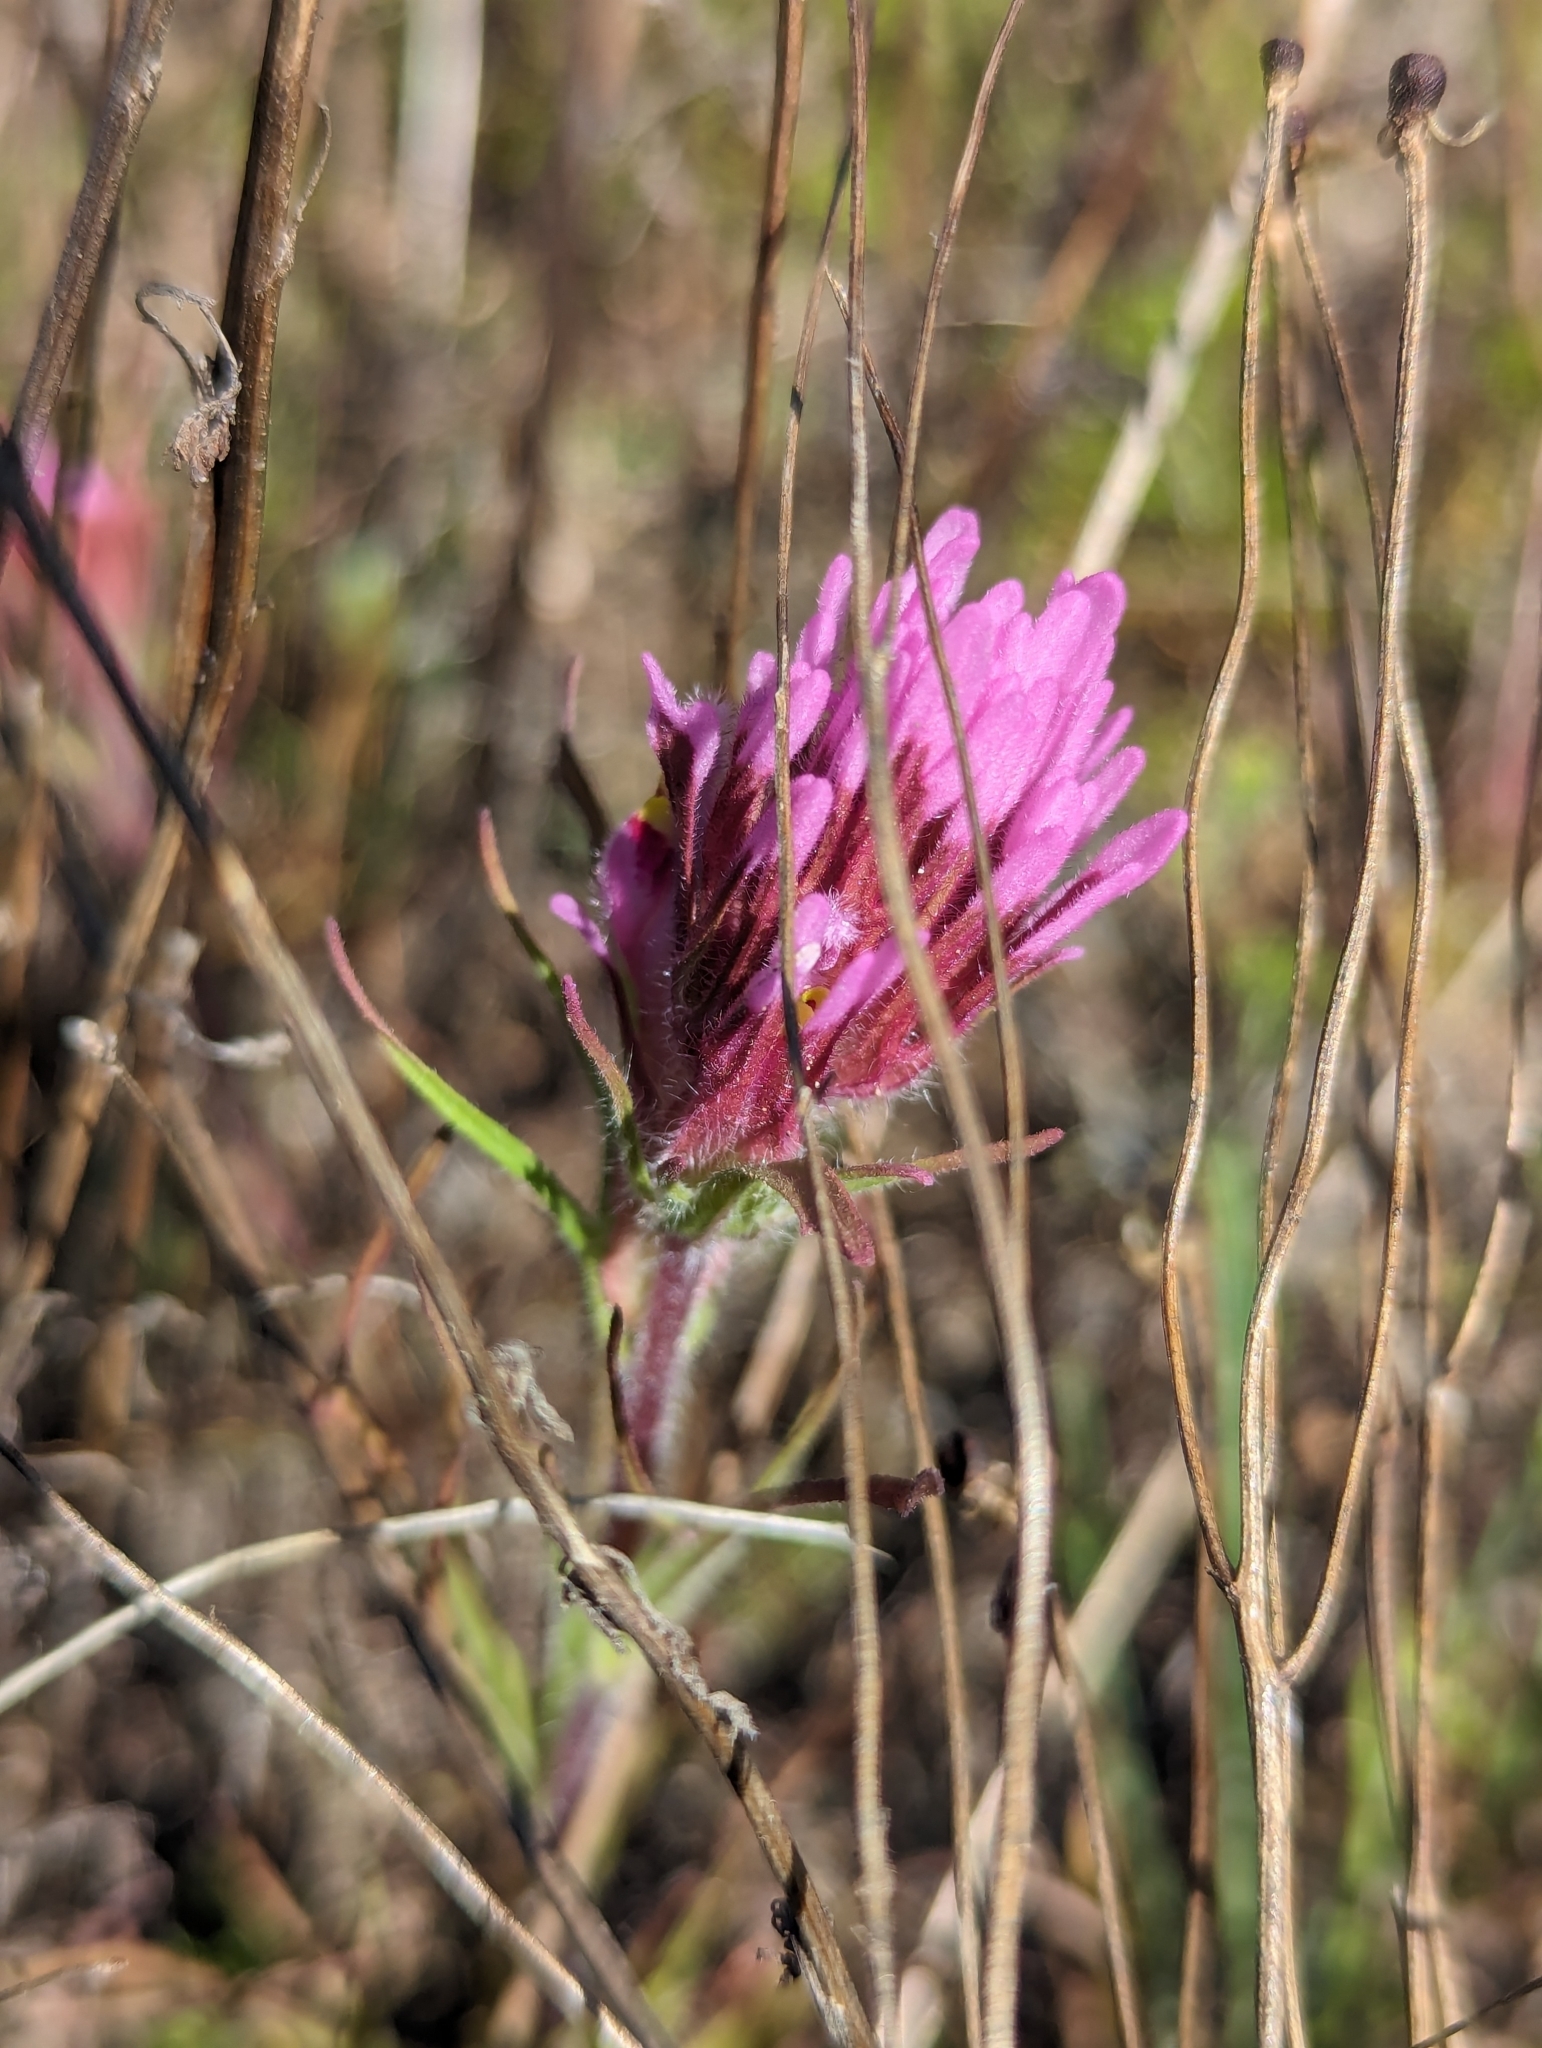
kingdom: Plantae
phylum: Tracheophyta
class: Magnoliopsida
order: Lamiales
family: Orobanchaceae
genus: Castilleja
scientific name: Castilleja exserta
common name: Purple owl-clover
